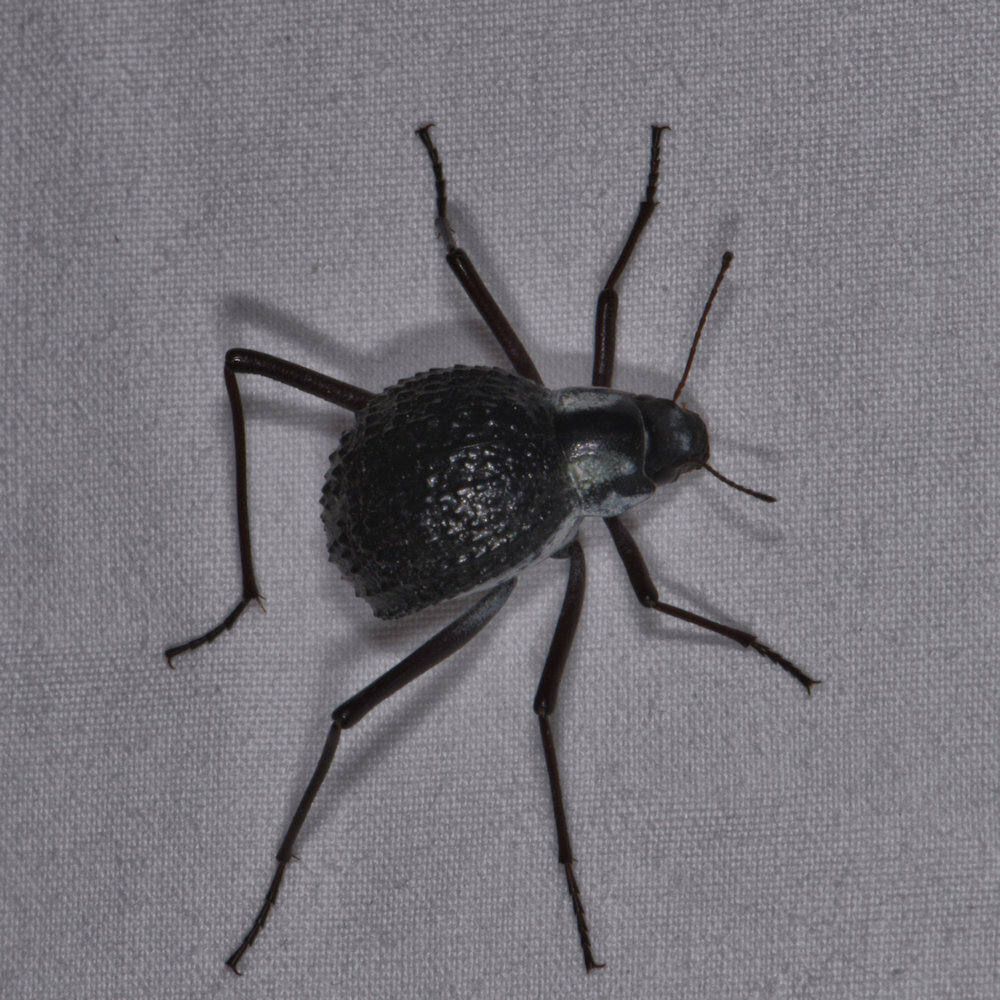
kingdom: Animalia
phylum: Arthropoda
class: Insecta
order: Coleoptera
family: Tenebrionidae
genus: Stenocara
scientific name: Stenocara
